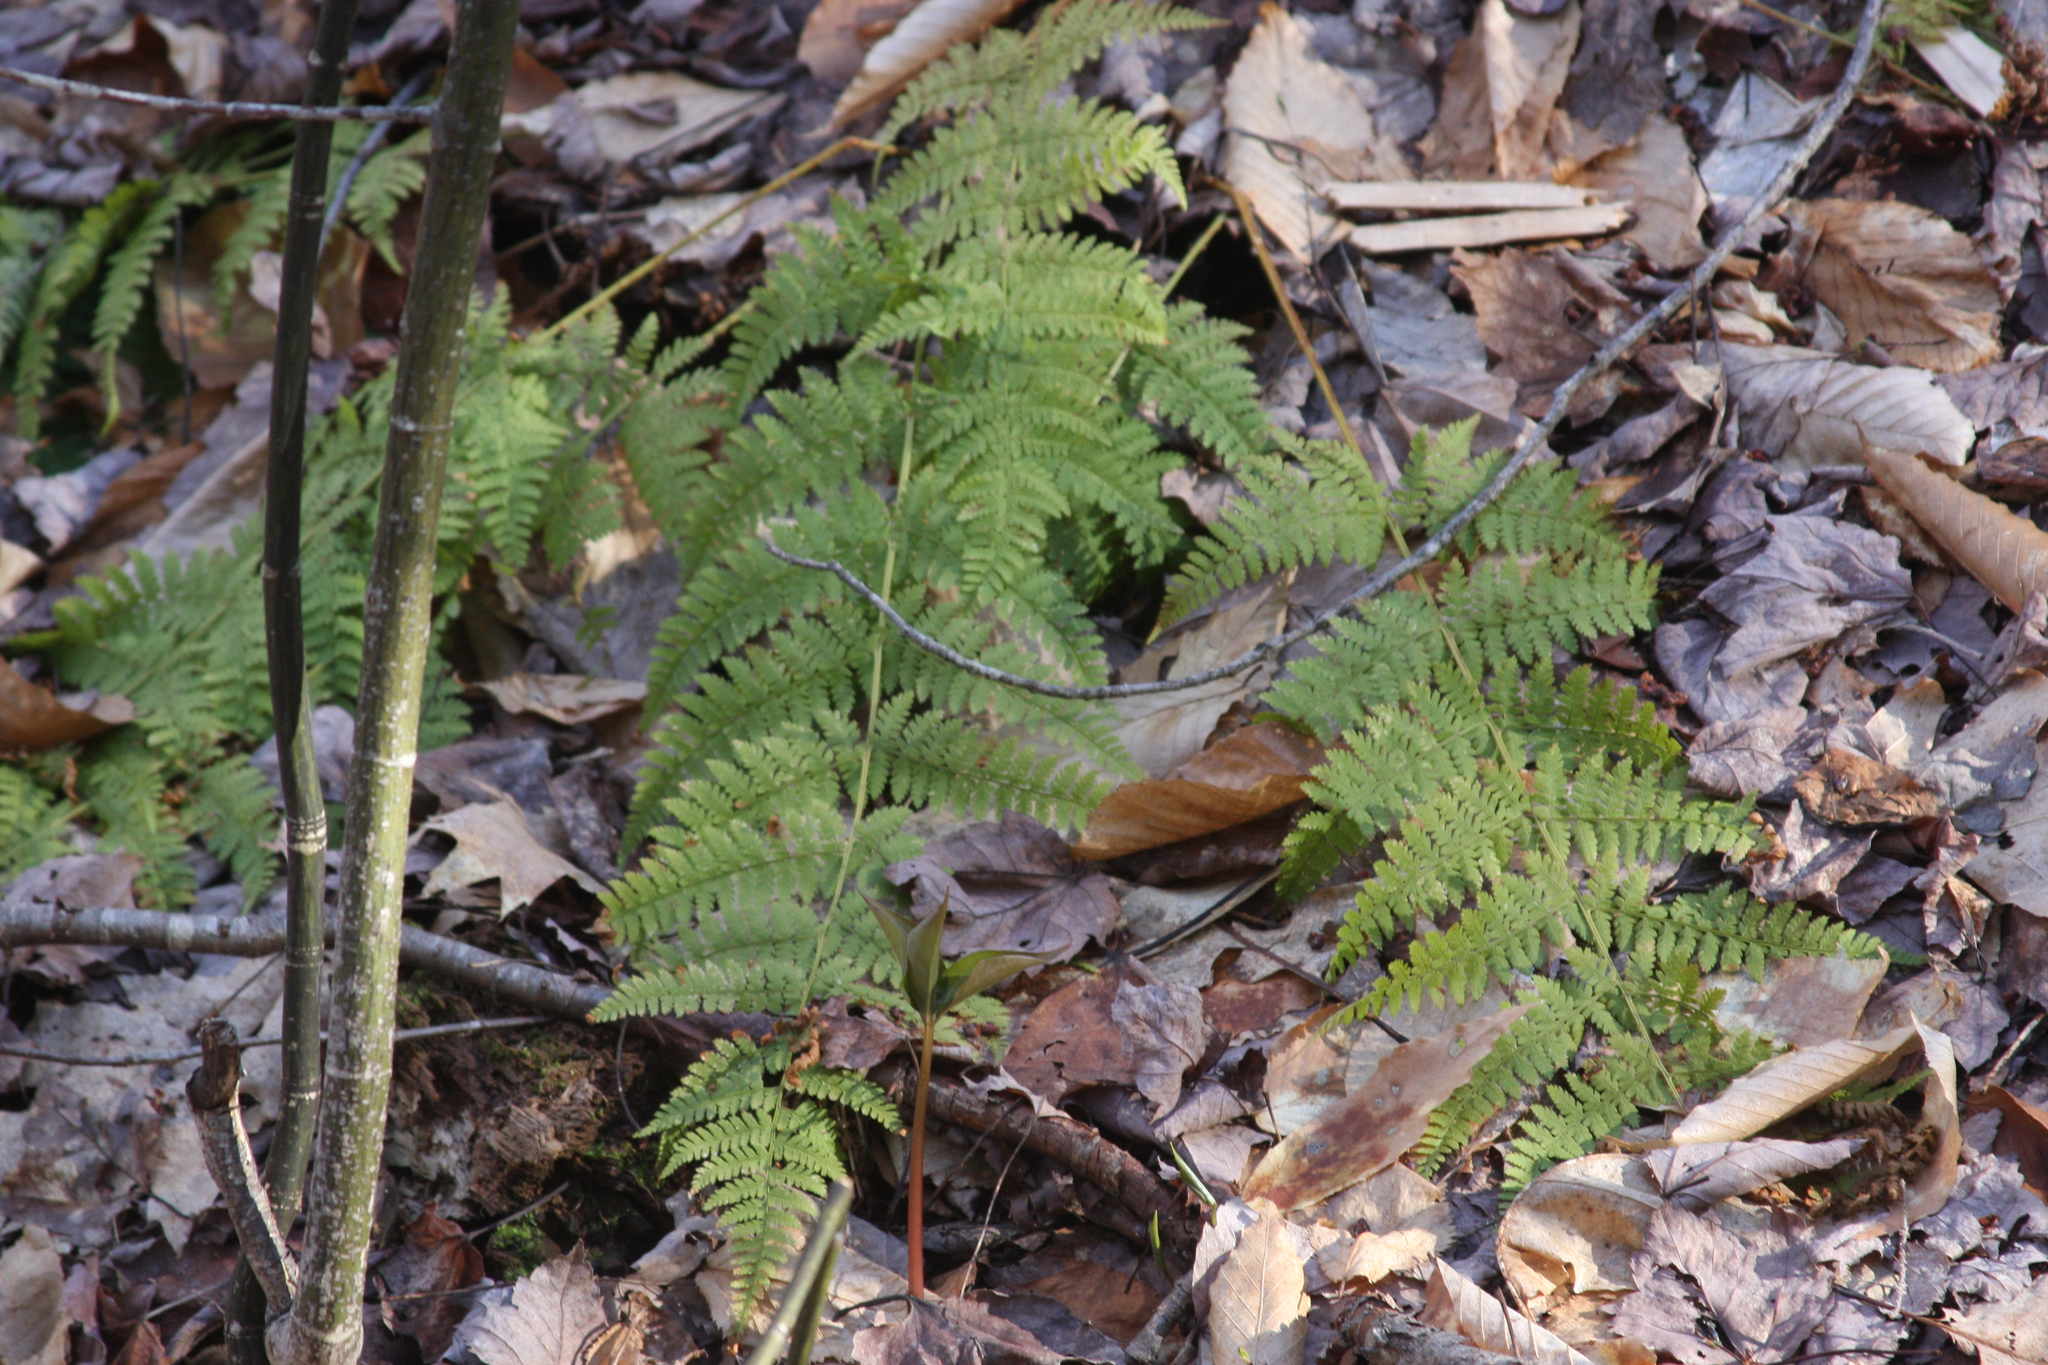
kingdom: Plantae
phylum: Tracheophyta
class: Polypodiopsida
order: Polypodiales
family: Dryopteridaceae
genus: Dryopteris
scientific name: Dryopteris intermedia
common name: Evergreen wood fern
